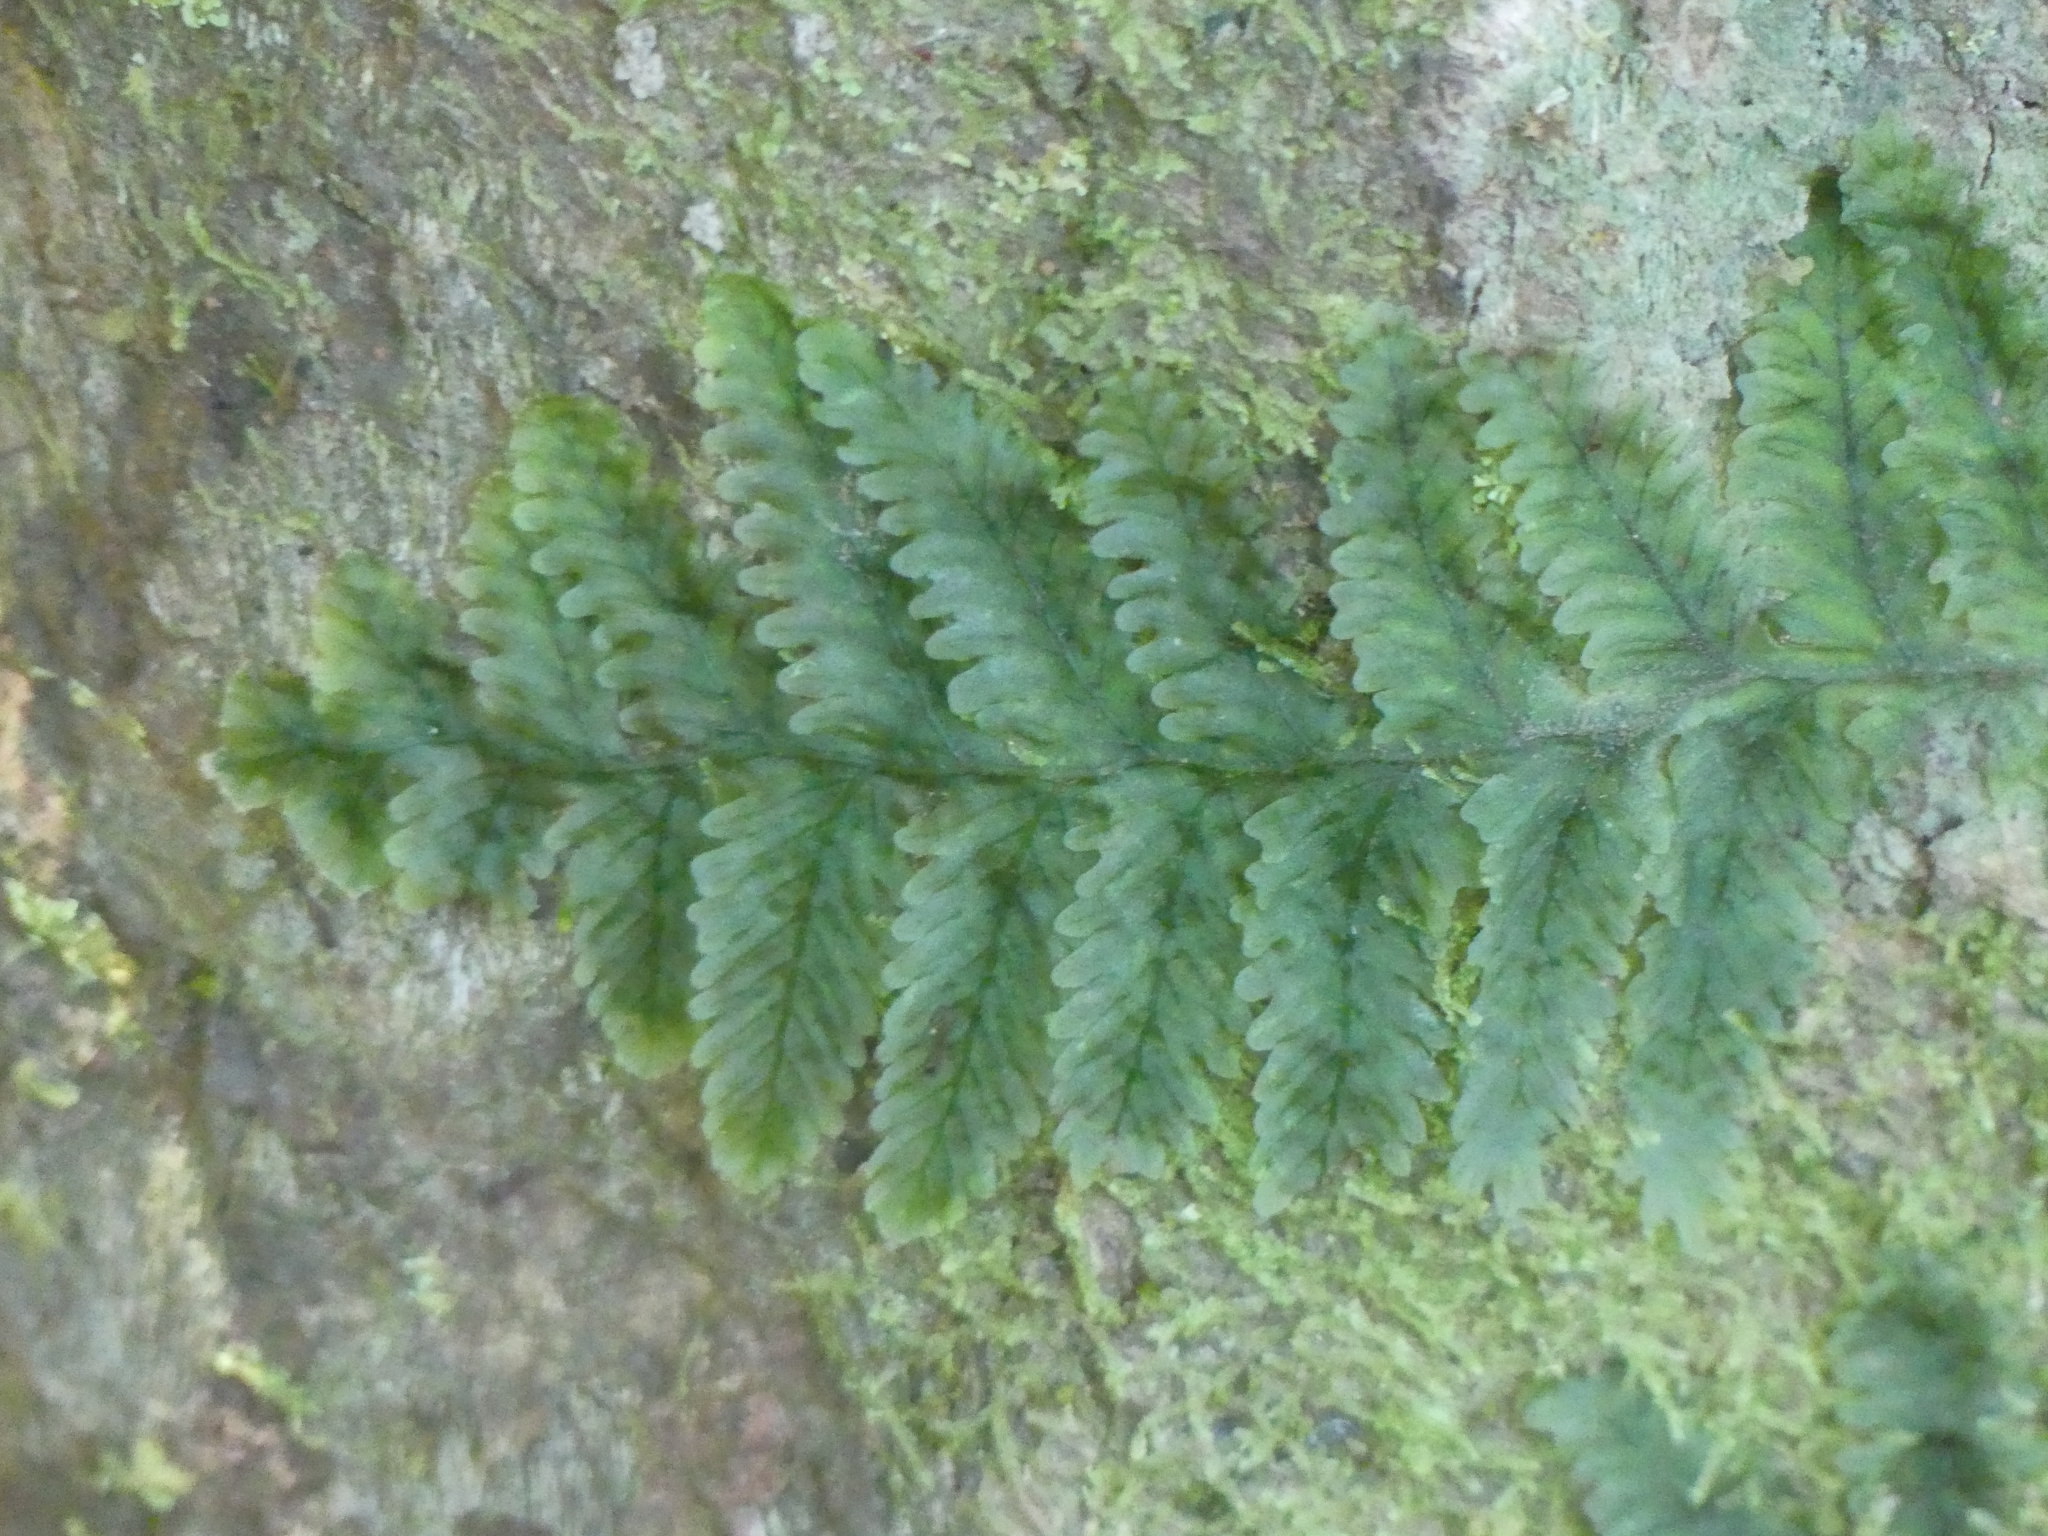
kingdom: Plantae
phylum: Tracheophyta
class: Polypodiopsida
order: Hymenophyllales
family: Hymenophyllaceae
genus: Trichomanes
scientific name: Trichomanes ankersii
